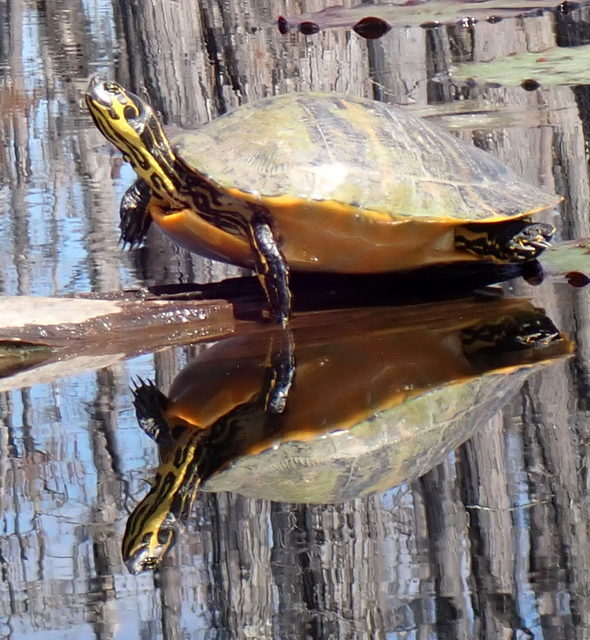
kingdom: Animalia
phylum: Chordata
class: Testudines
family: Emydidae
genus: Pseudemys
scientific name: Pseudemys concinna
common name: Eastern river cooter
